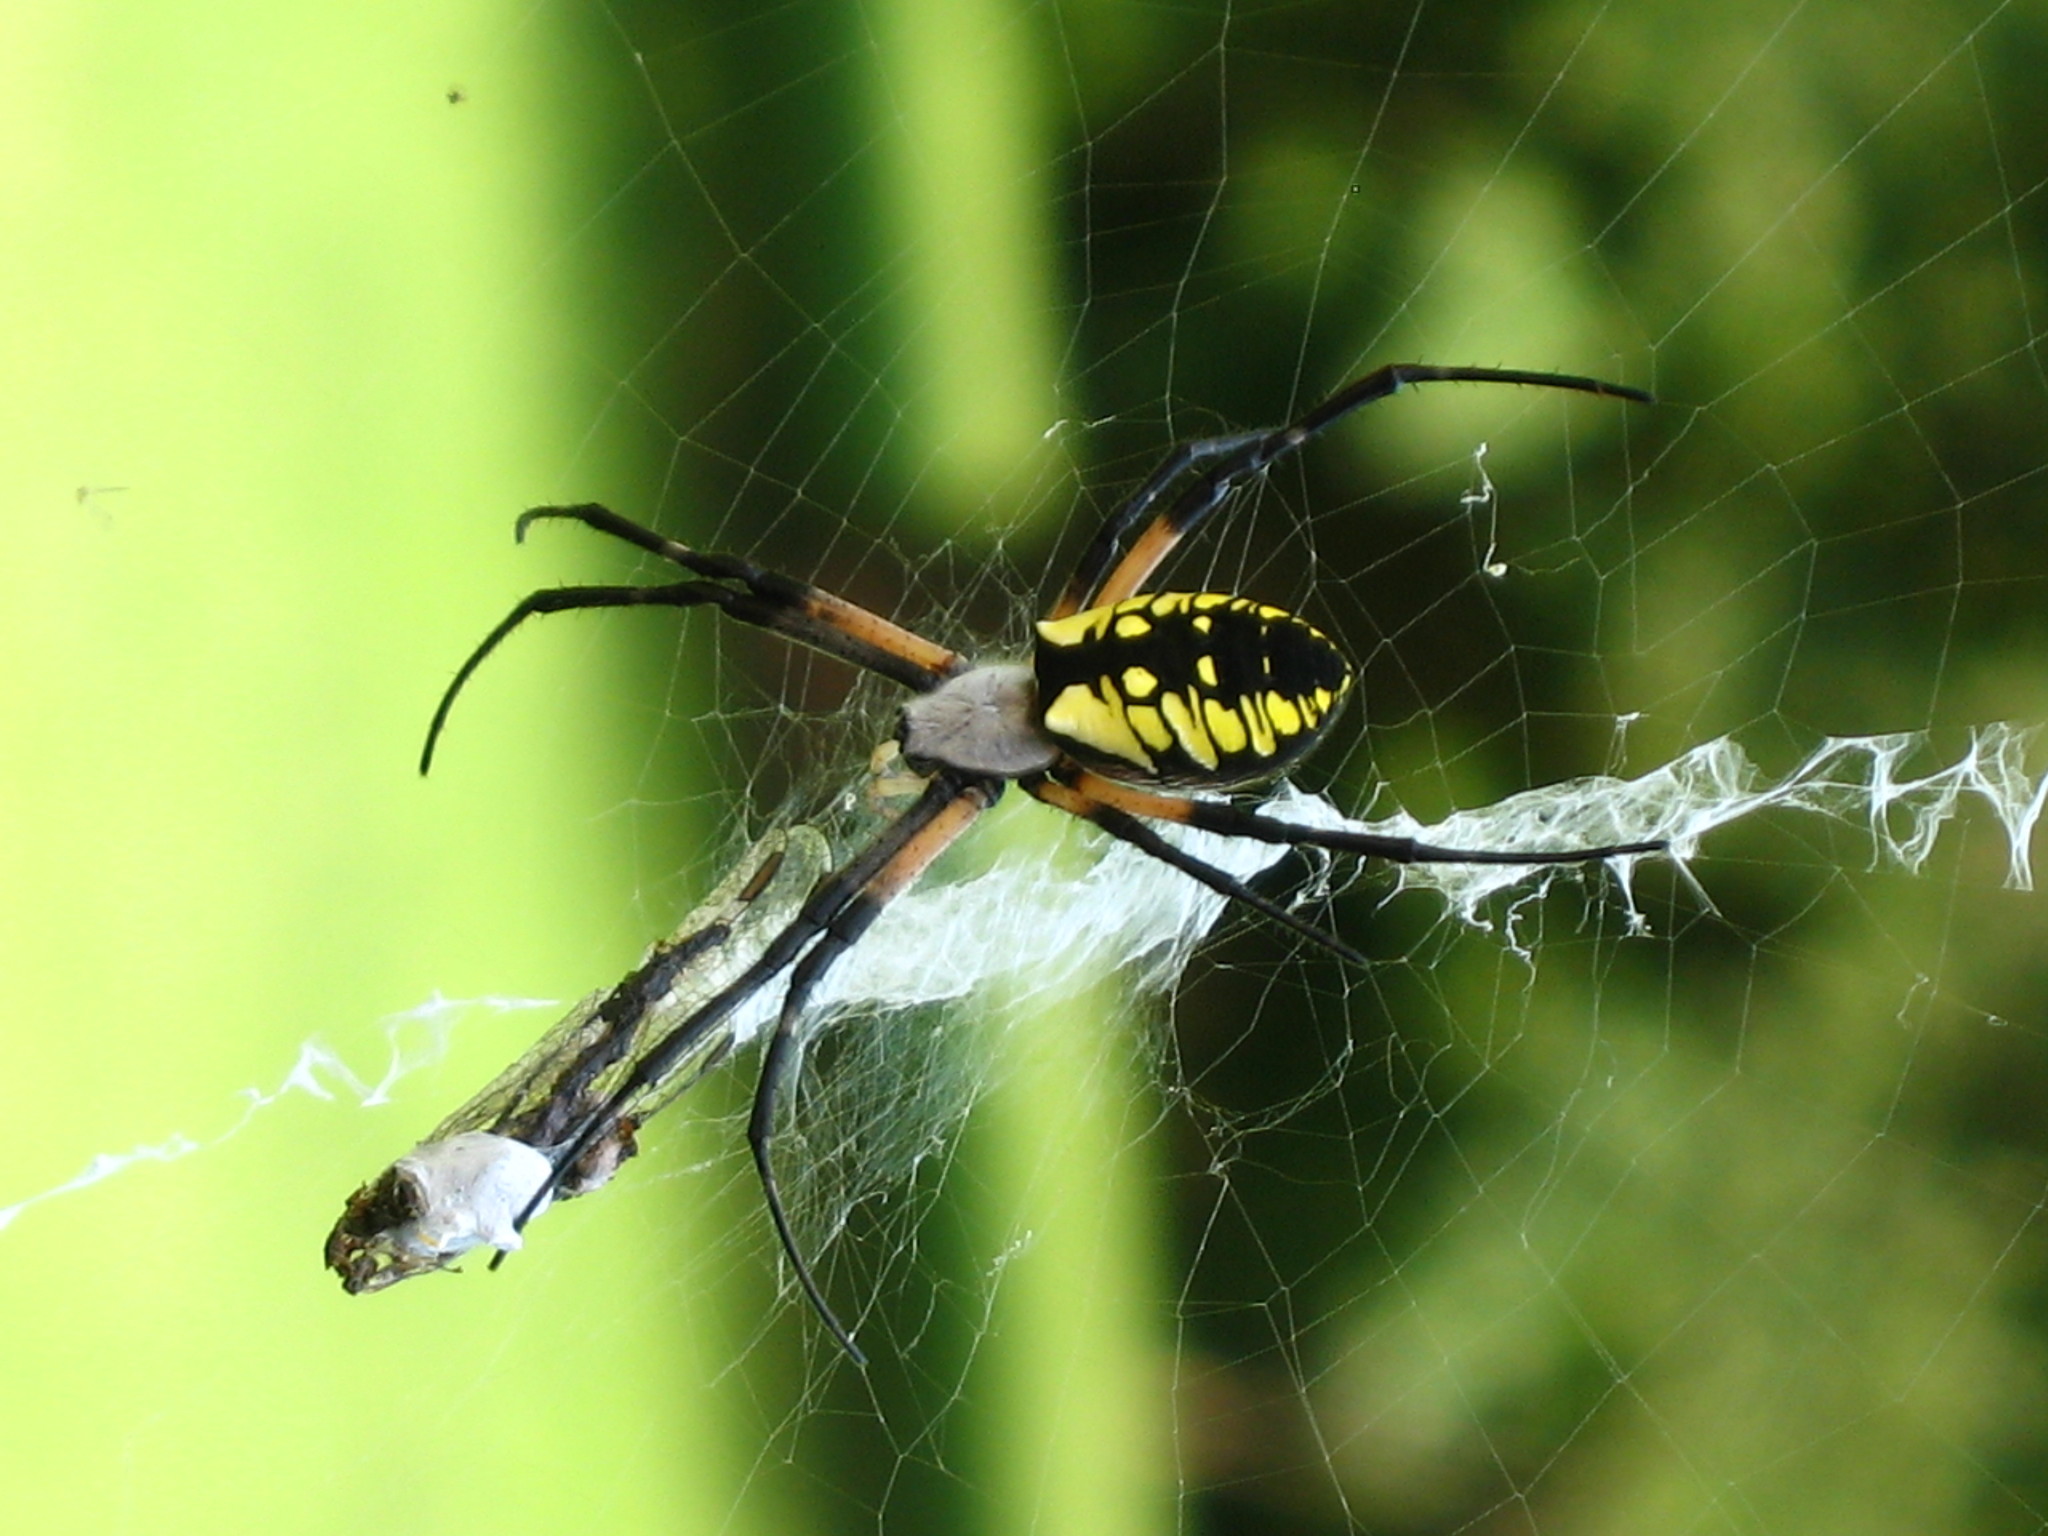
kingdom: Animalia
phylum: Arthropoda
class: Arachnida
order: Araneae
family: Araneidae
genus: Argiope
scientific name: Argiope aurantia
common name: Orb weavers
